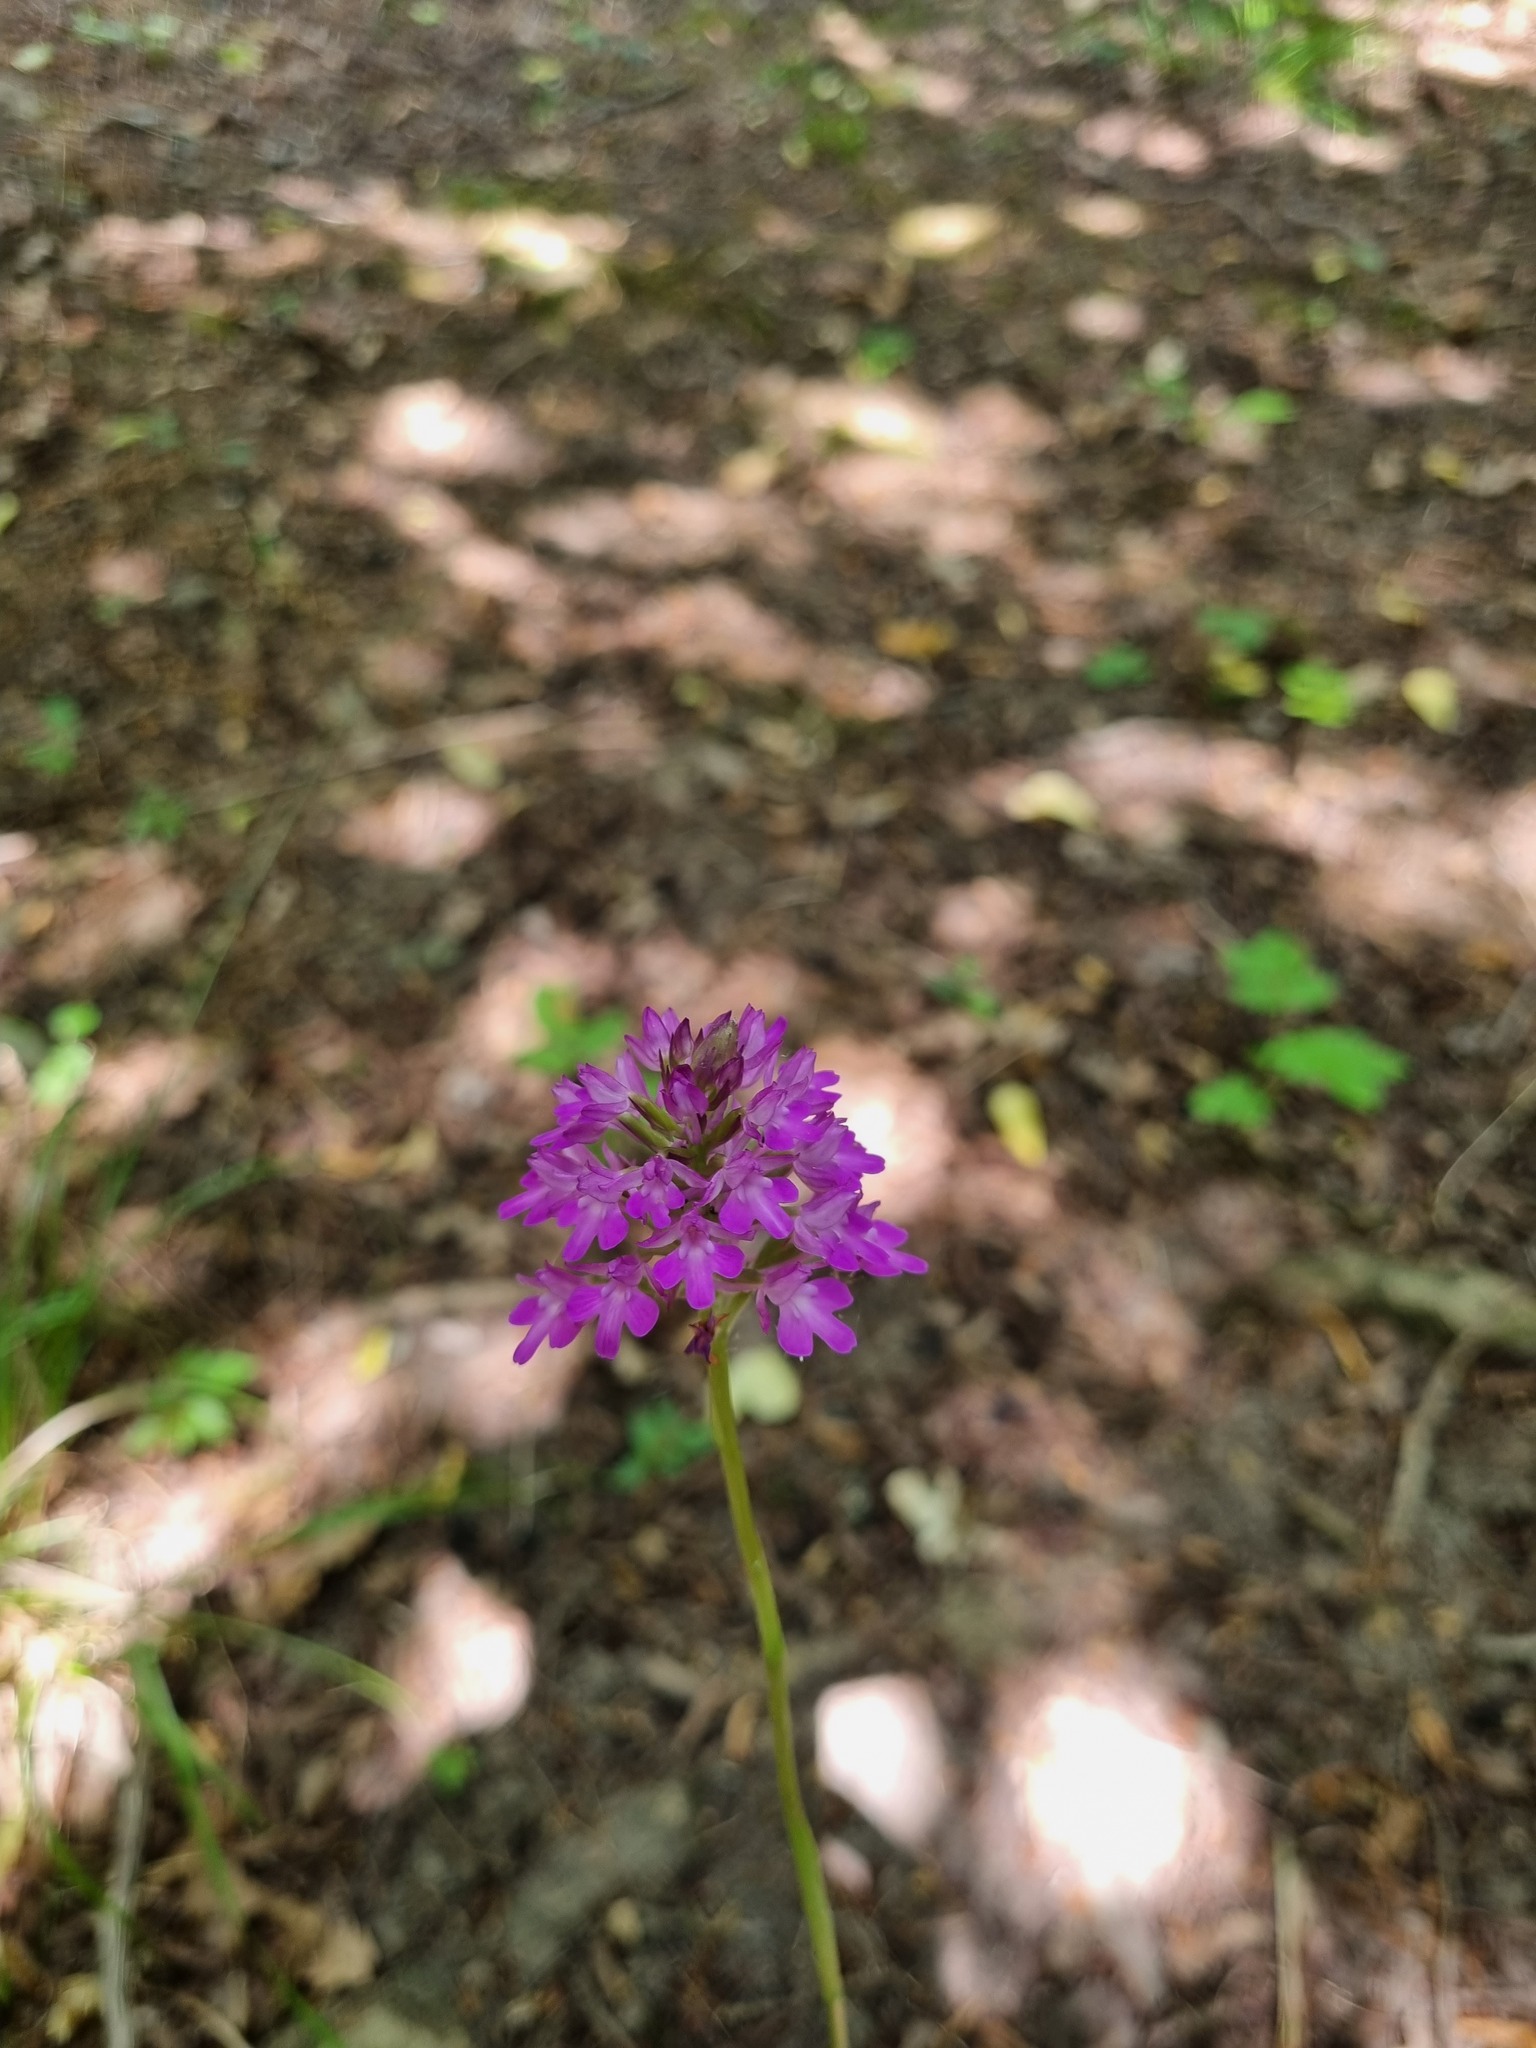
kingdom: Plantae
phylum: Tracheophyta
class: Liliopsida
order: Asparagales
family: Orchidaceae
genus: Anacamptis
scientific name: Anacamptis pyramidalis
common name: Pyramidal orchid
